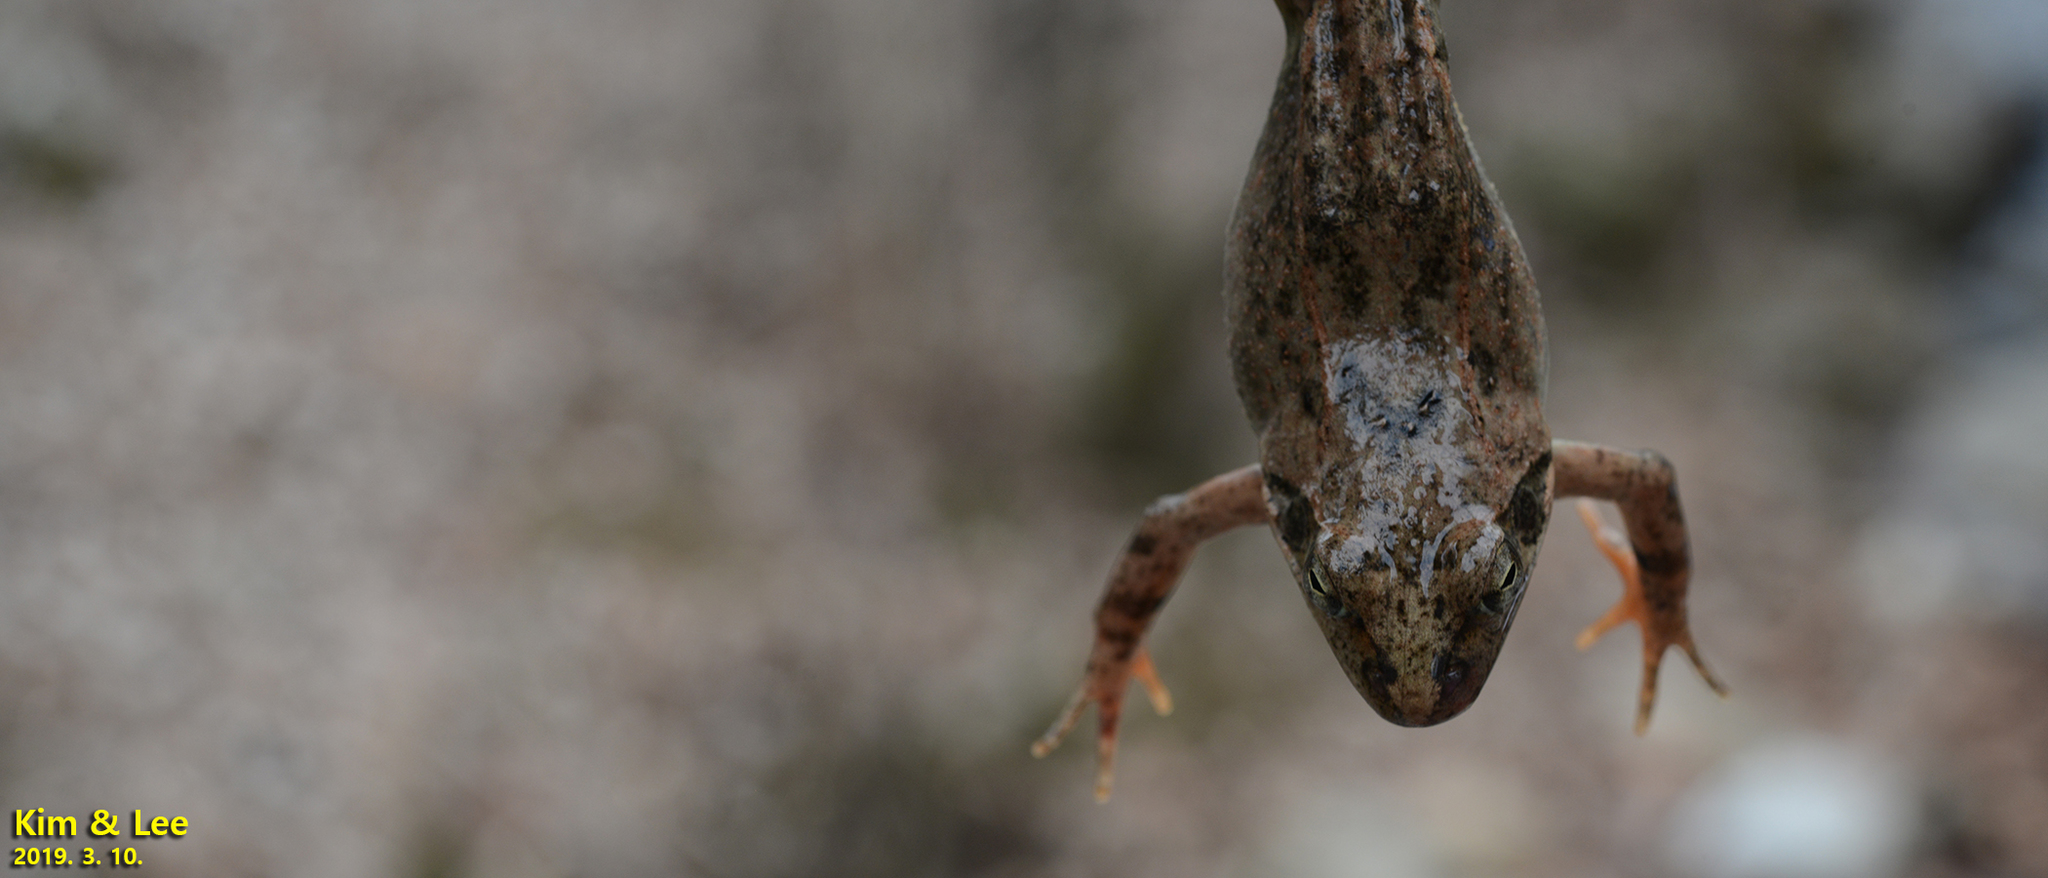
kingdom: Animalia
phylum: Chordata
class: Amphibia
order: Anura
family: Ranidae
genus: Rana
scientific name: Rana dybowskii
